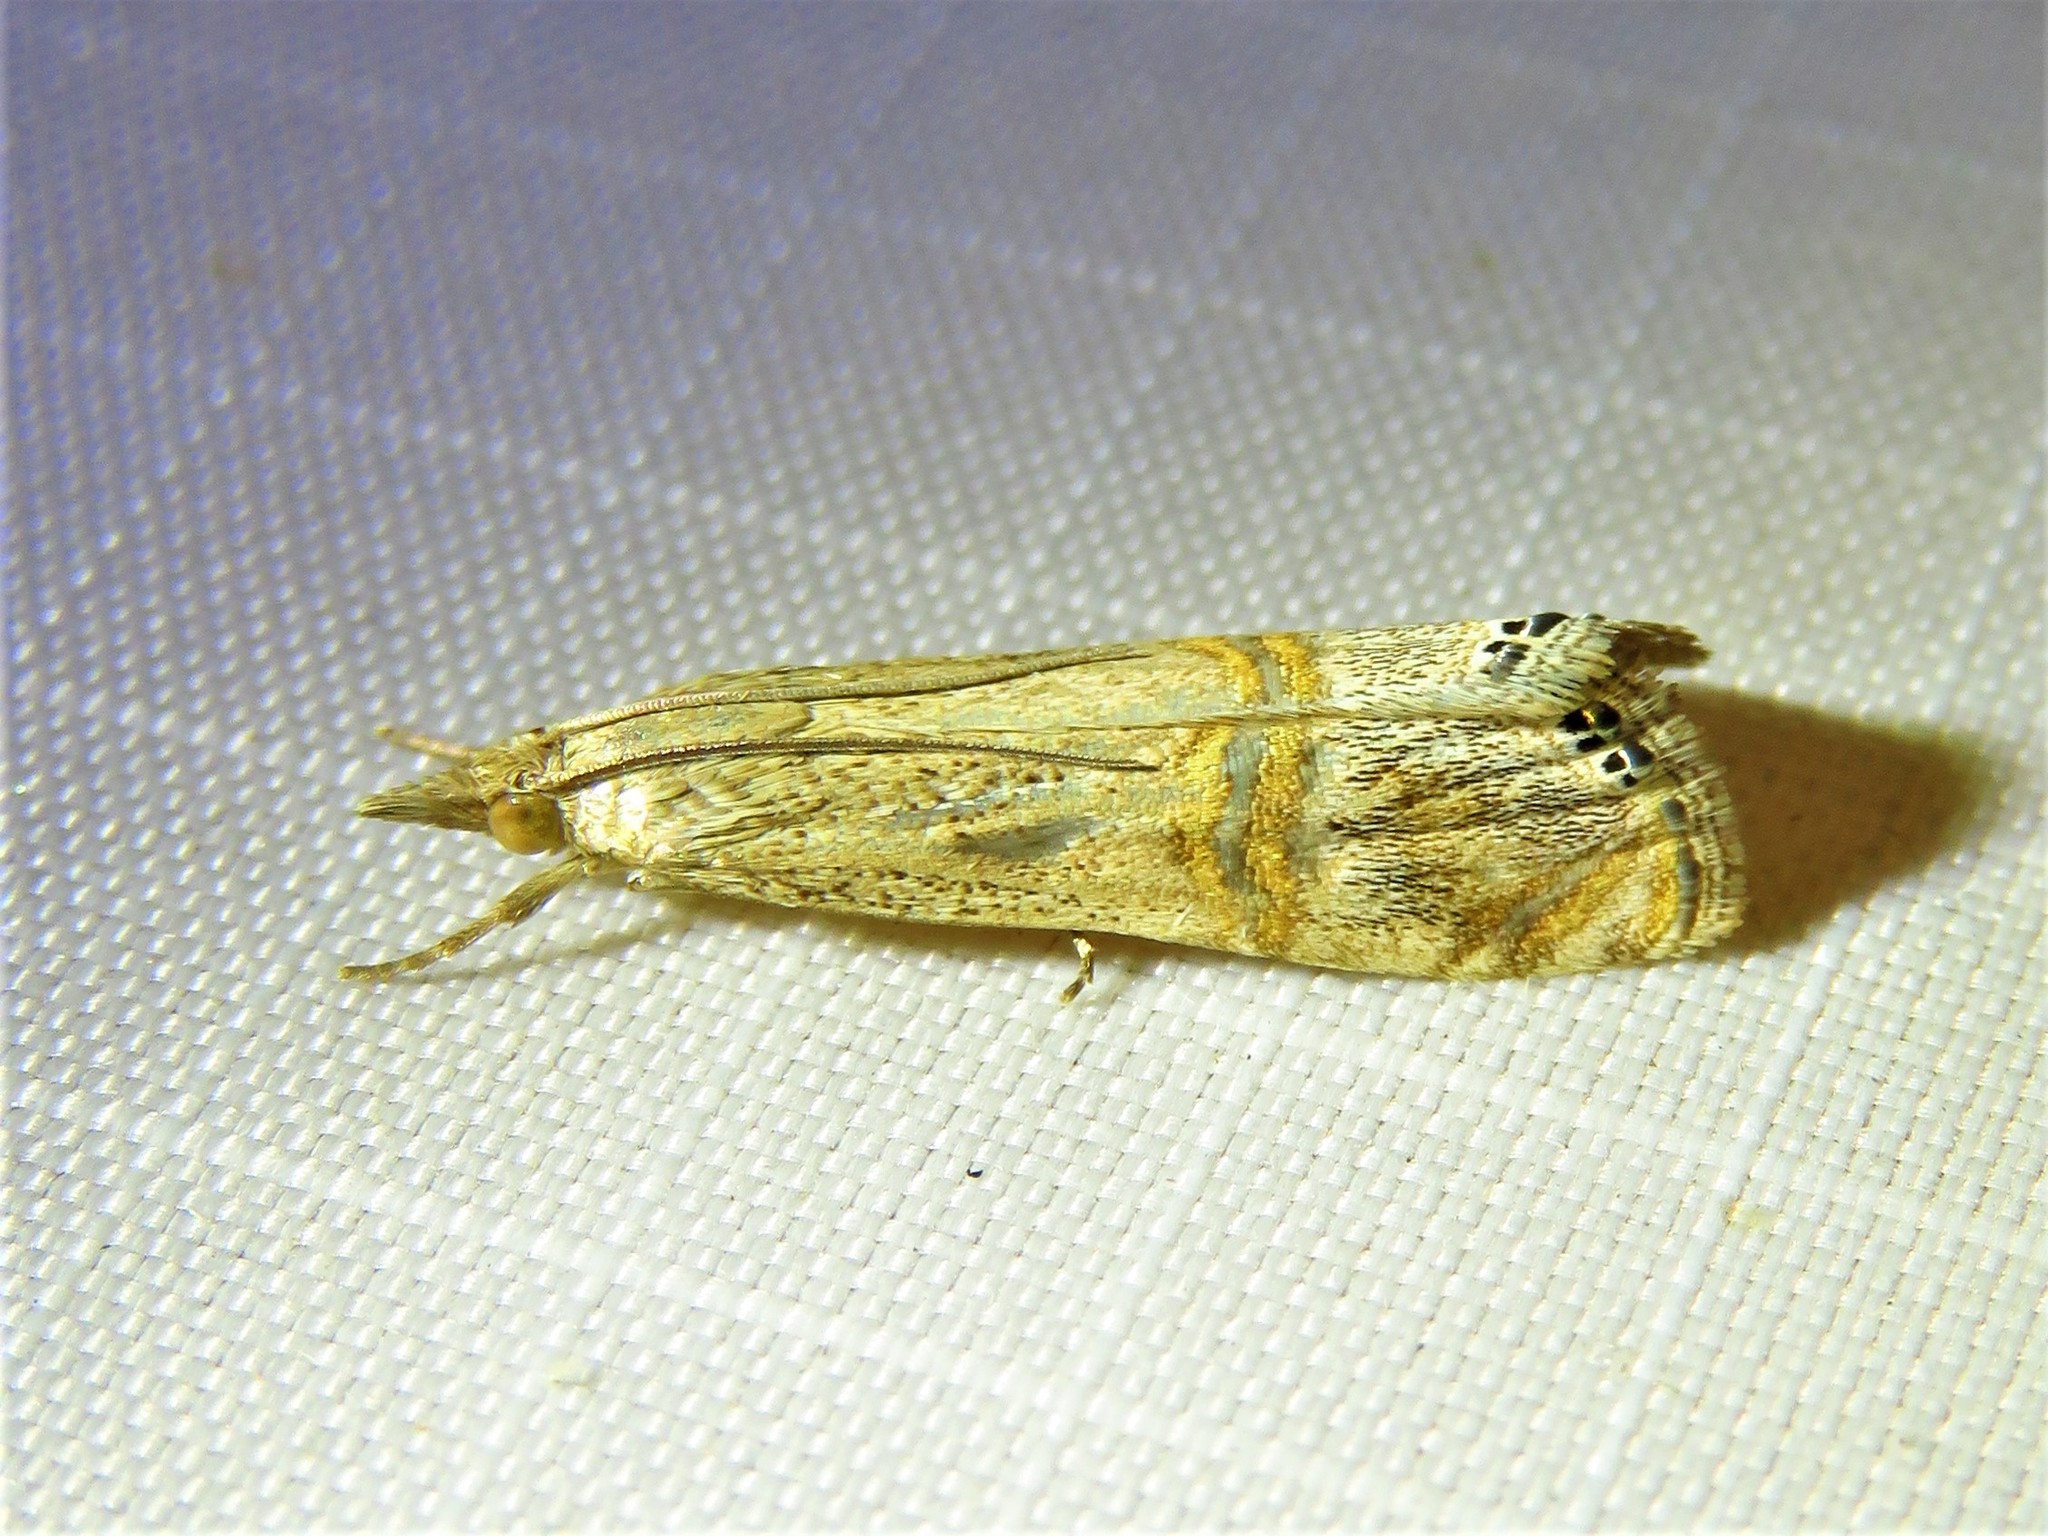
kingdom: Animalia
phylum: Arthropoda
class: Insecta
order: Lepidoptera
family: Crambidae
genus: Euchromius
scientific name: Euchromius ocellea
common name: Necklace veneer moth
